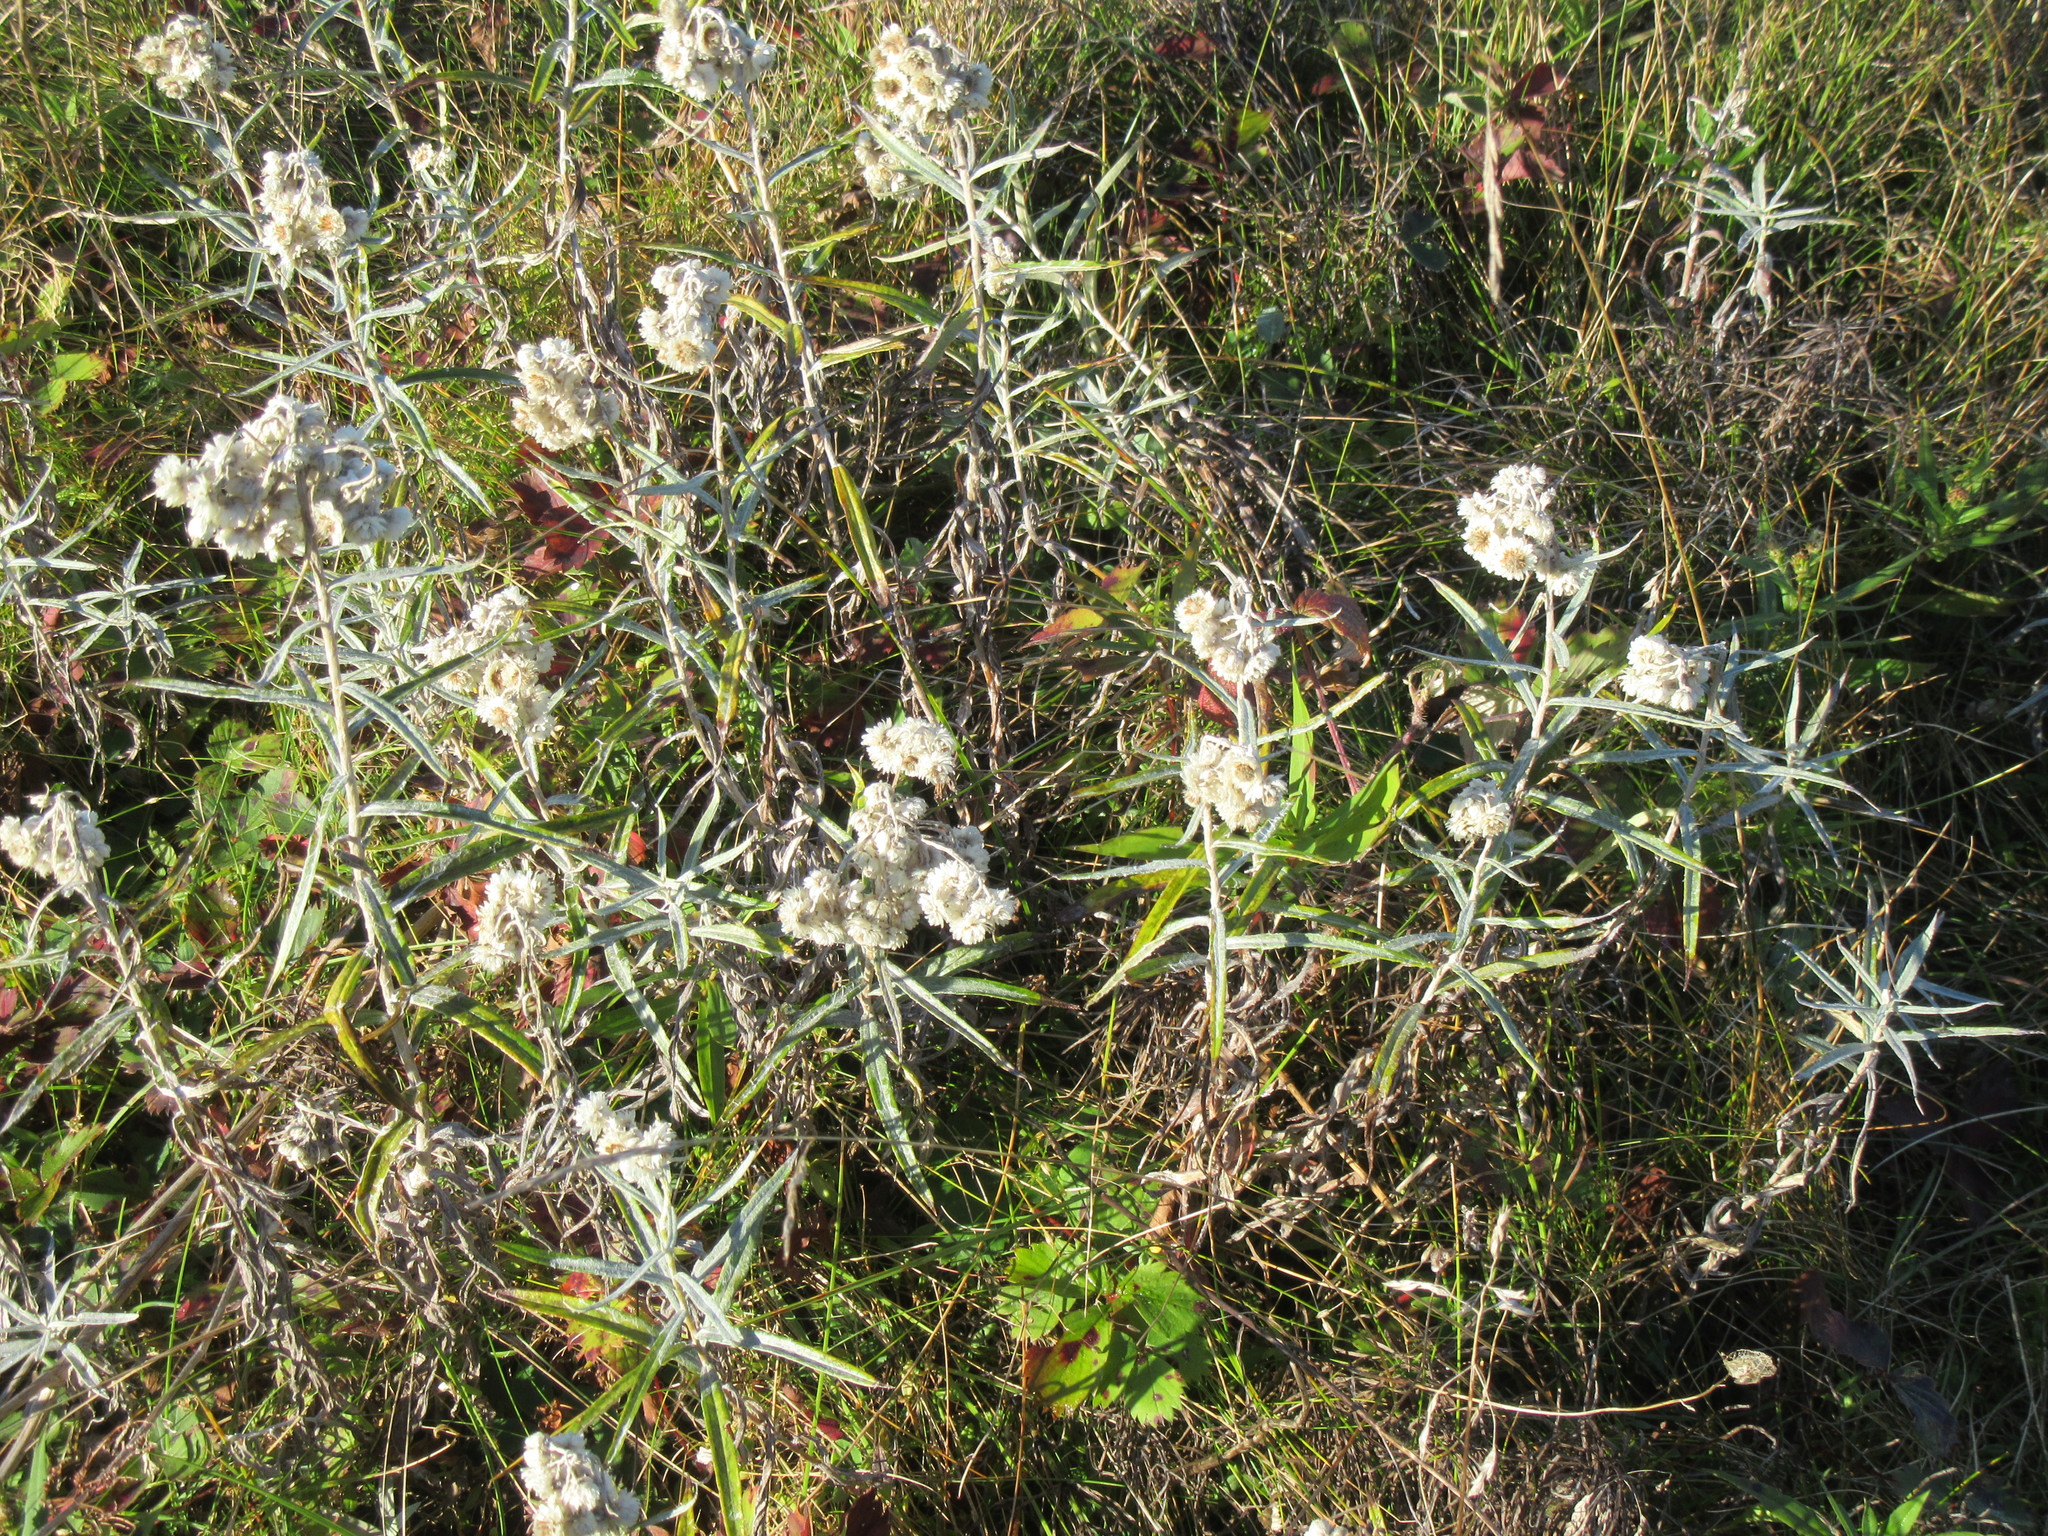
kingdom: Plantae
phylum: Tracheophyta
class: Magnoliopsida
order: Asterales
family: Asteraceae
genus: Anaphalis
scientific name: Anaphalis margaritacea
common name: Pearly everlasting
